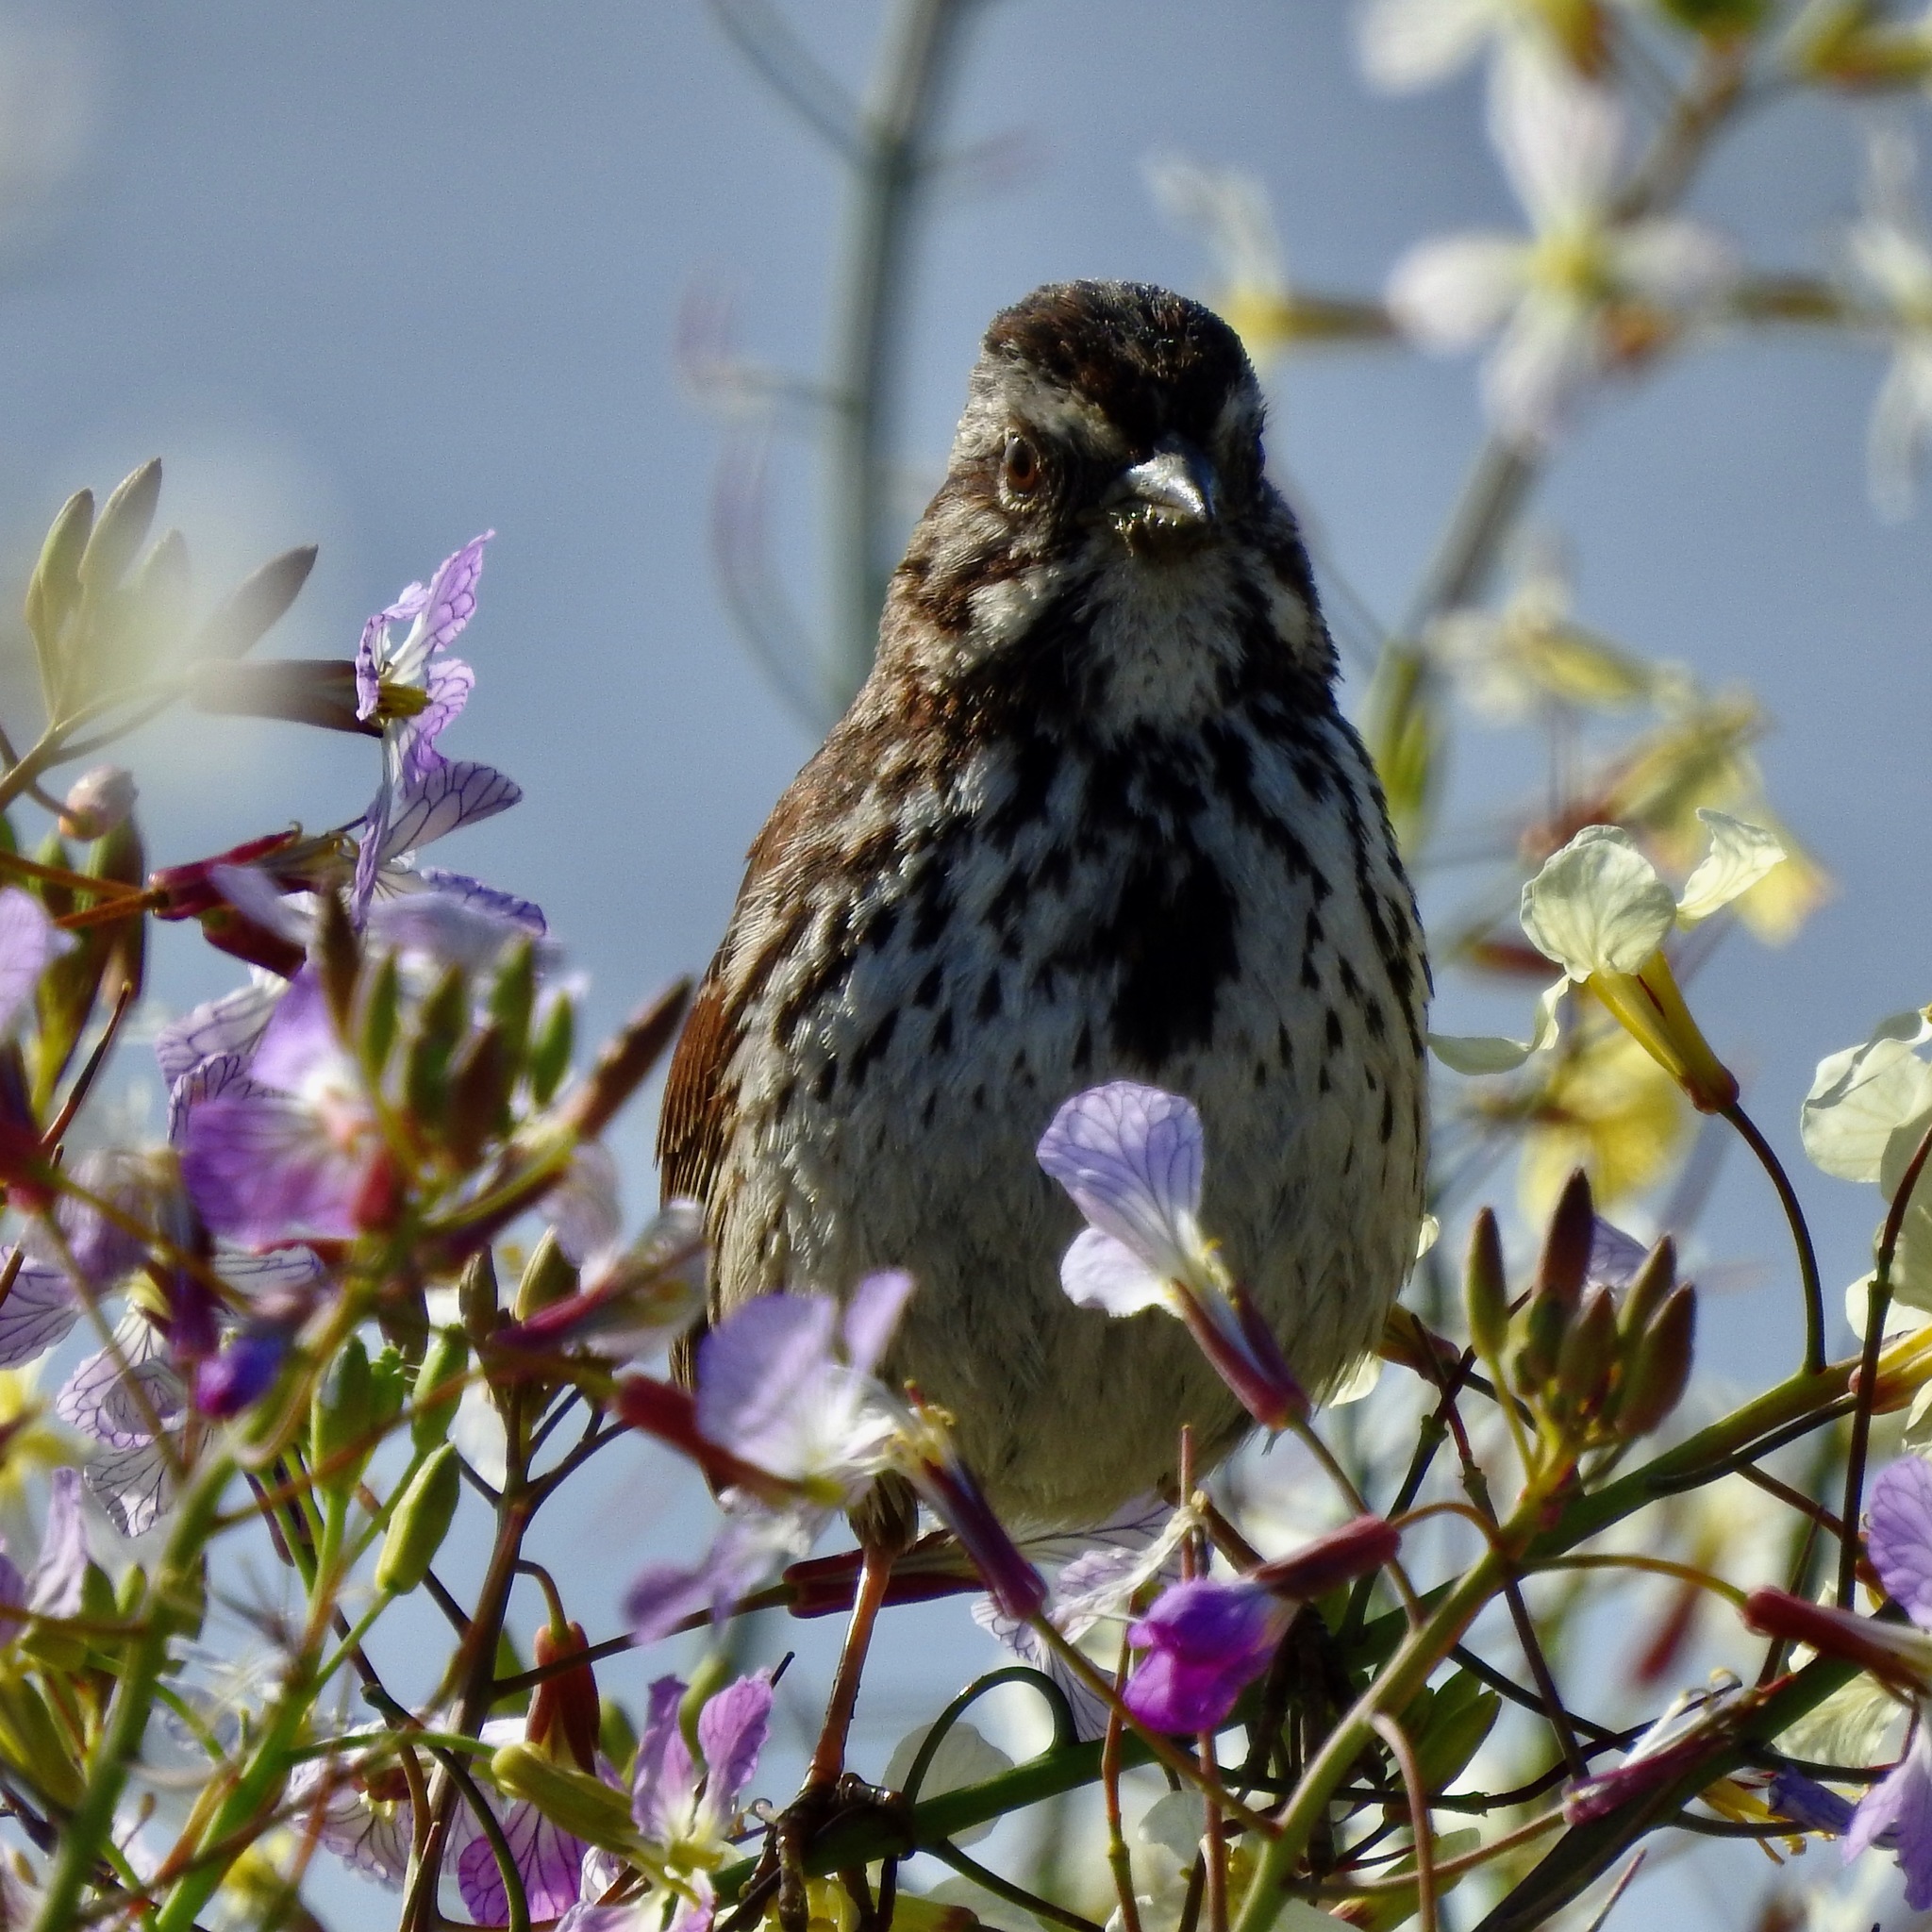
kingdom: Animalia
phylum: Chordata
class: Aves
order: Passeriformes
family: Passerellidae
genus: Melospiza
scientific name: Melospiza melodia
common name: Song sparrow
